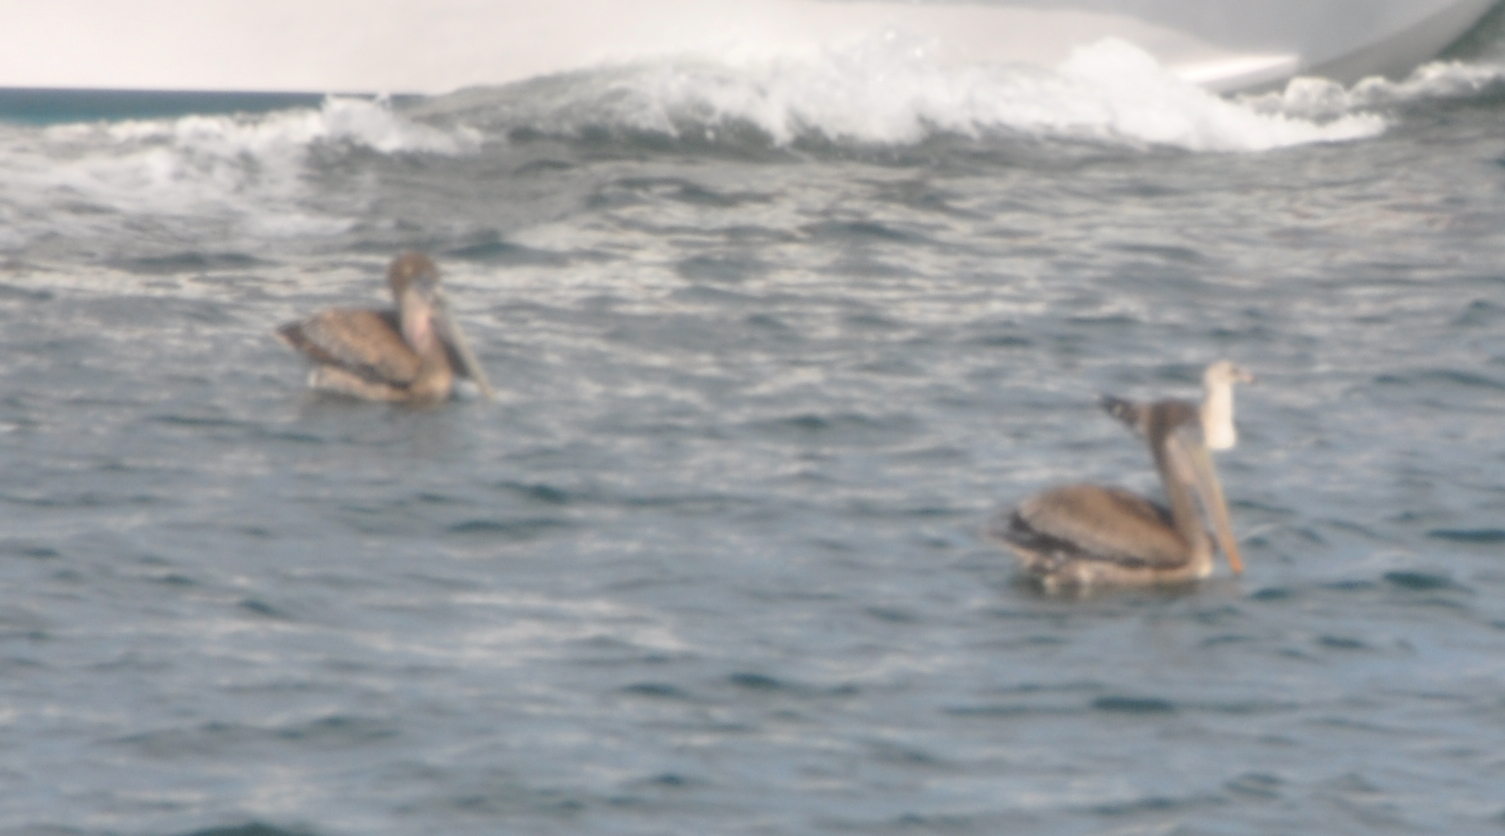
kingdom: Animalia
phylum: Chordata
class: Aves
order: Pelecaniformes
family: Pelecanidae
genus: Pelecanus
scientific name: Pelecanus occidentalis
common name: Brown pelican
